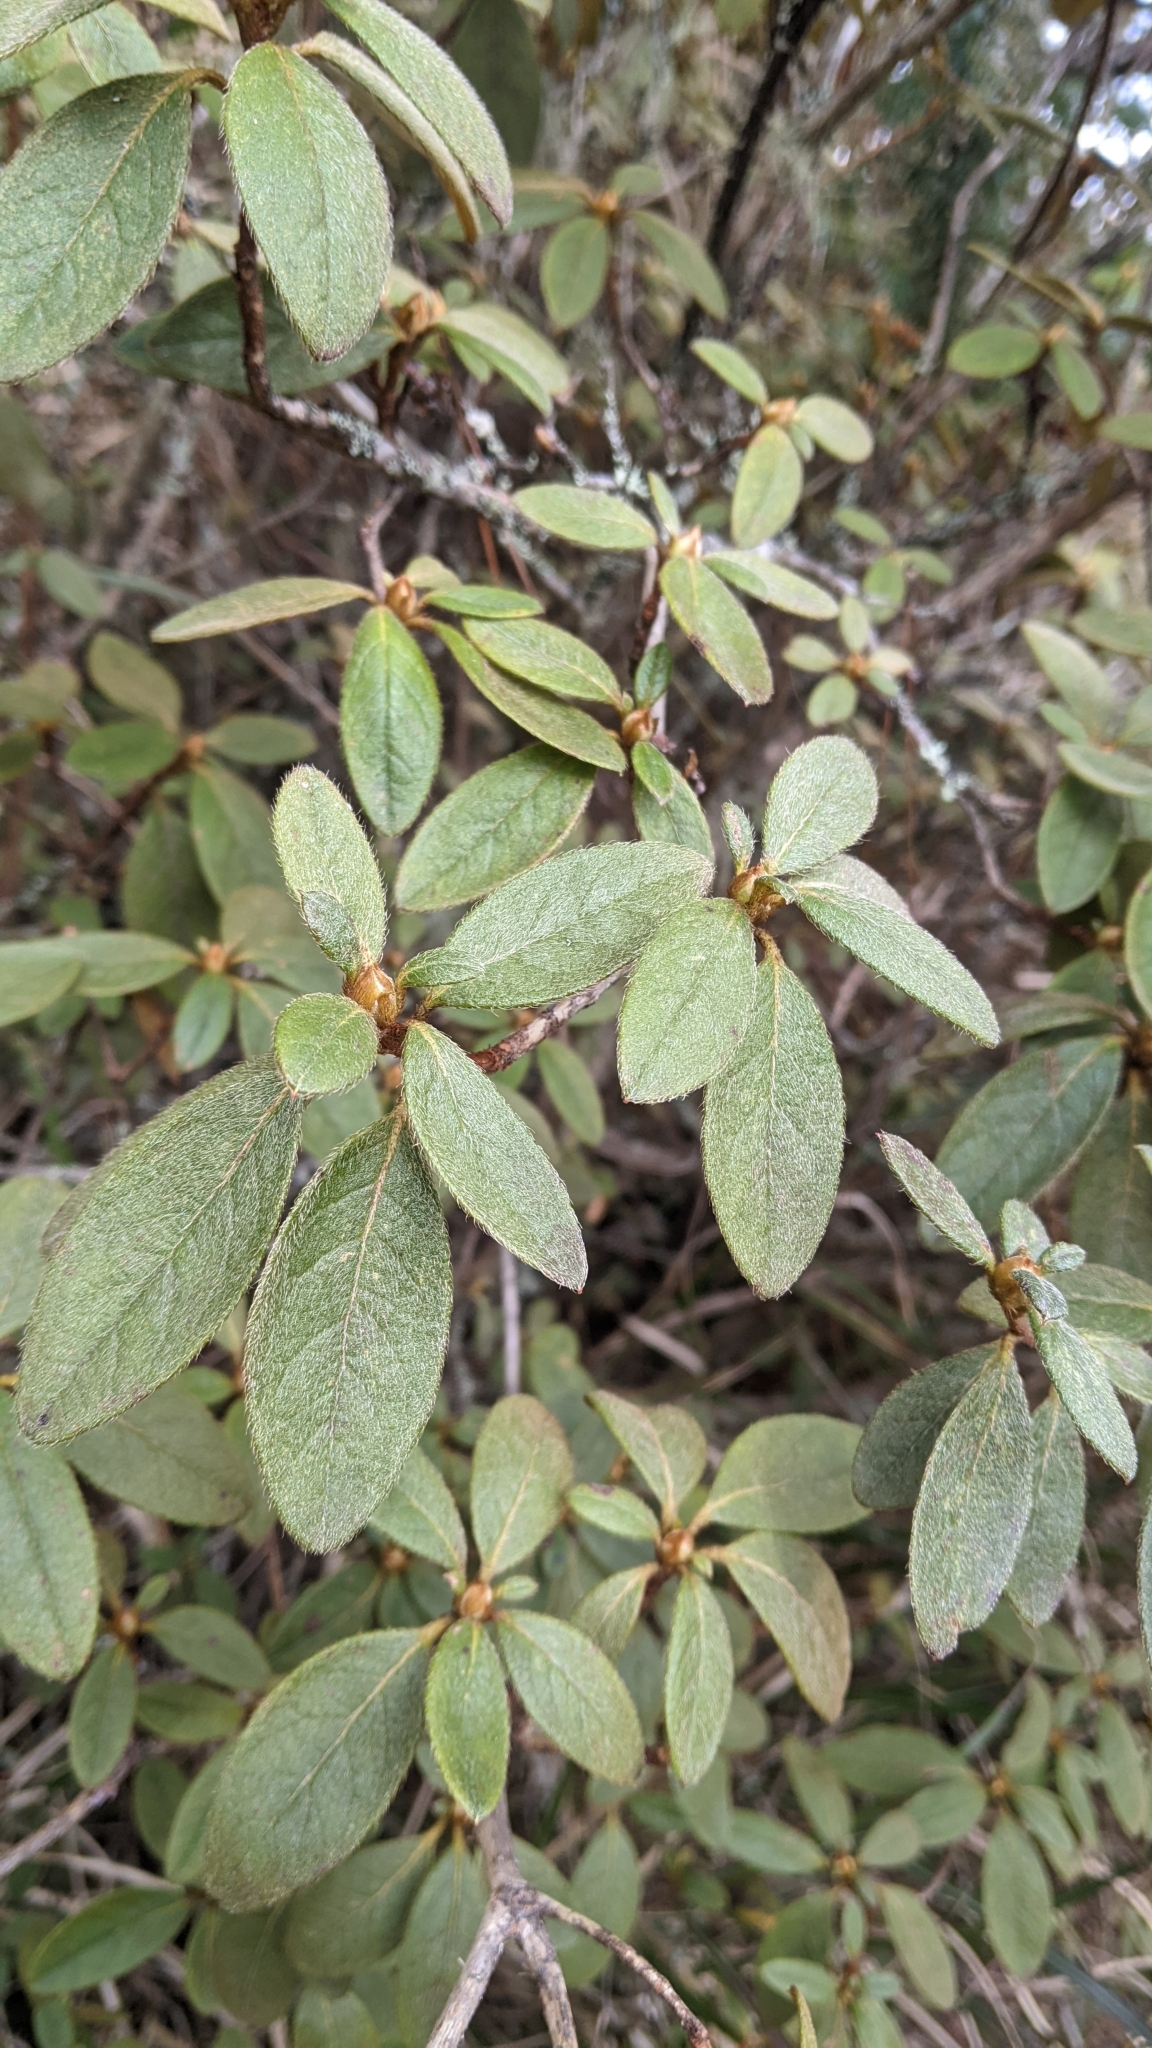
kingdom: Plantae
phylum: Tracheophyta
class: Magnoliopsida
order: Ericales
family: Ericaceae
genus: Rhododendron
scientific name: Rhododendron rubropilosum
